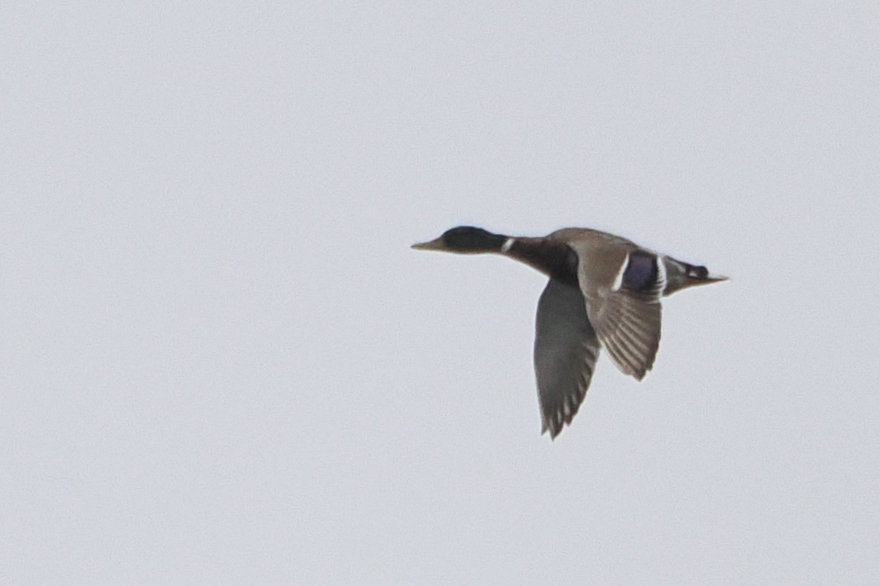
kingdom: Animalia
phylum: Chordata
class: Aves
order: Anseriformes
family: Anatidae
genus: Anas
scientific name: Anas platyrhynchos
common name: Mallard
